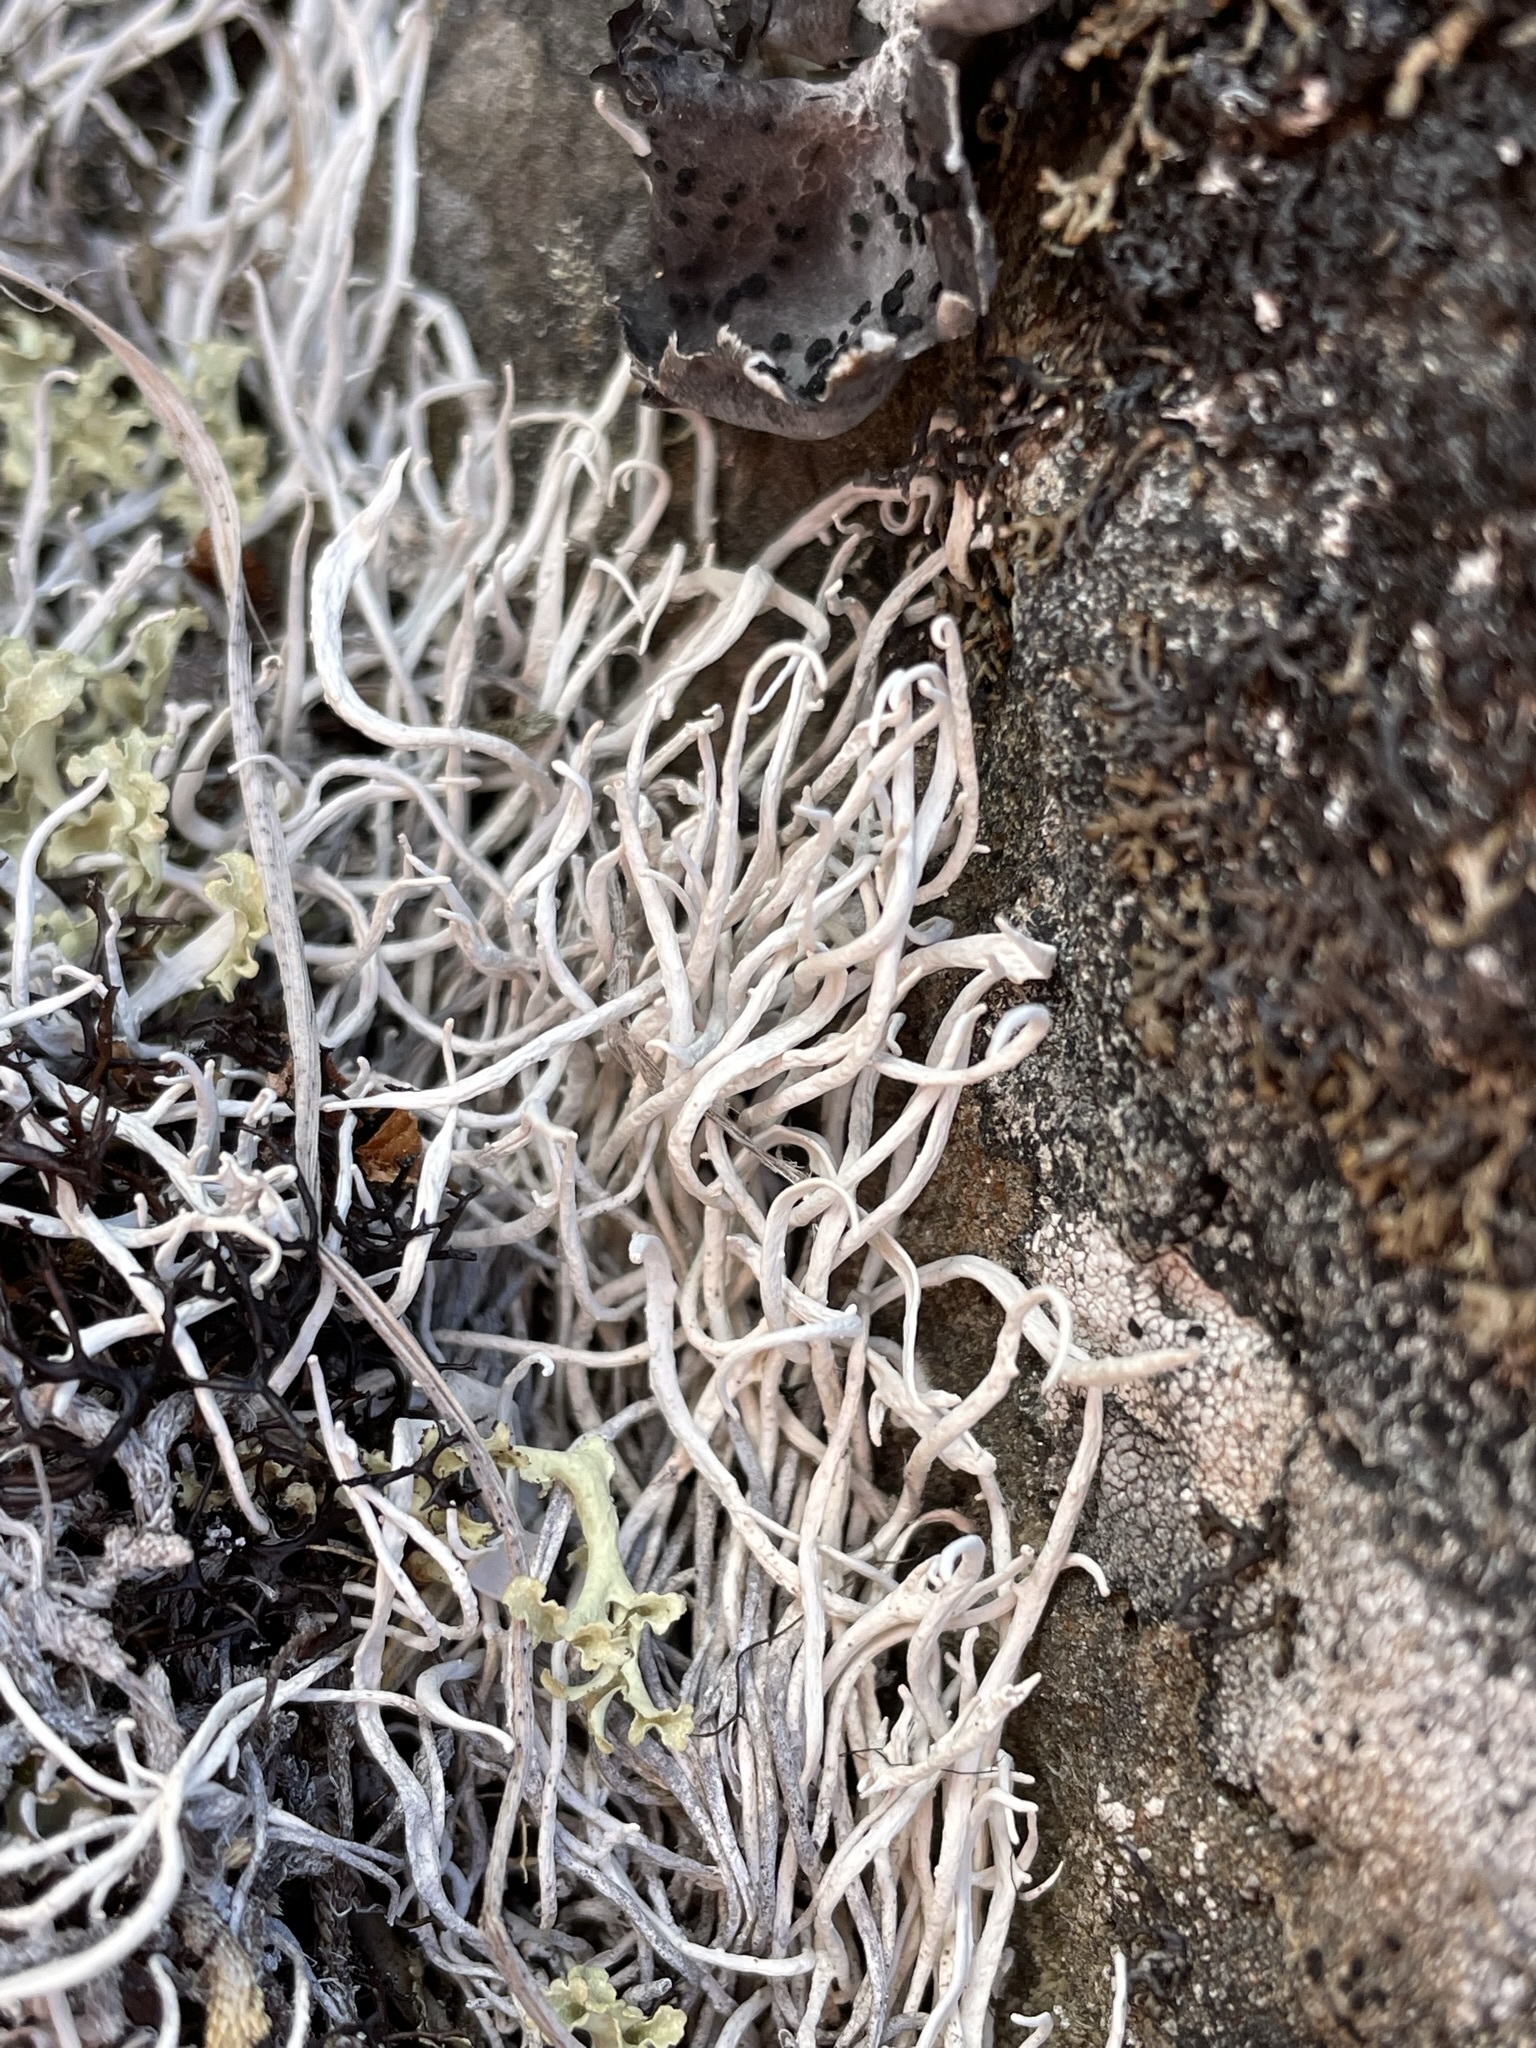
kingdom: Fungi
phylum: Ascomycota
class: Lecanoromycetes
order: Pertusariales
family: Icmadophilaceae
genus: Thamnolia
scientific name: Thamnolia vermicularis
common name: Whiteworm lichen
